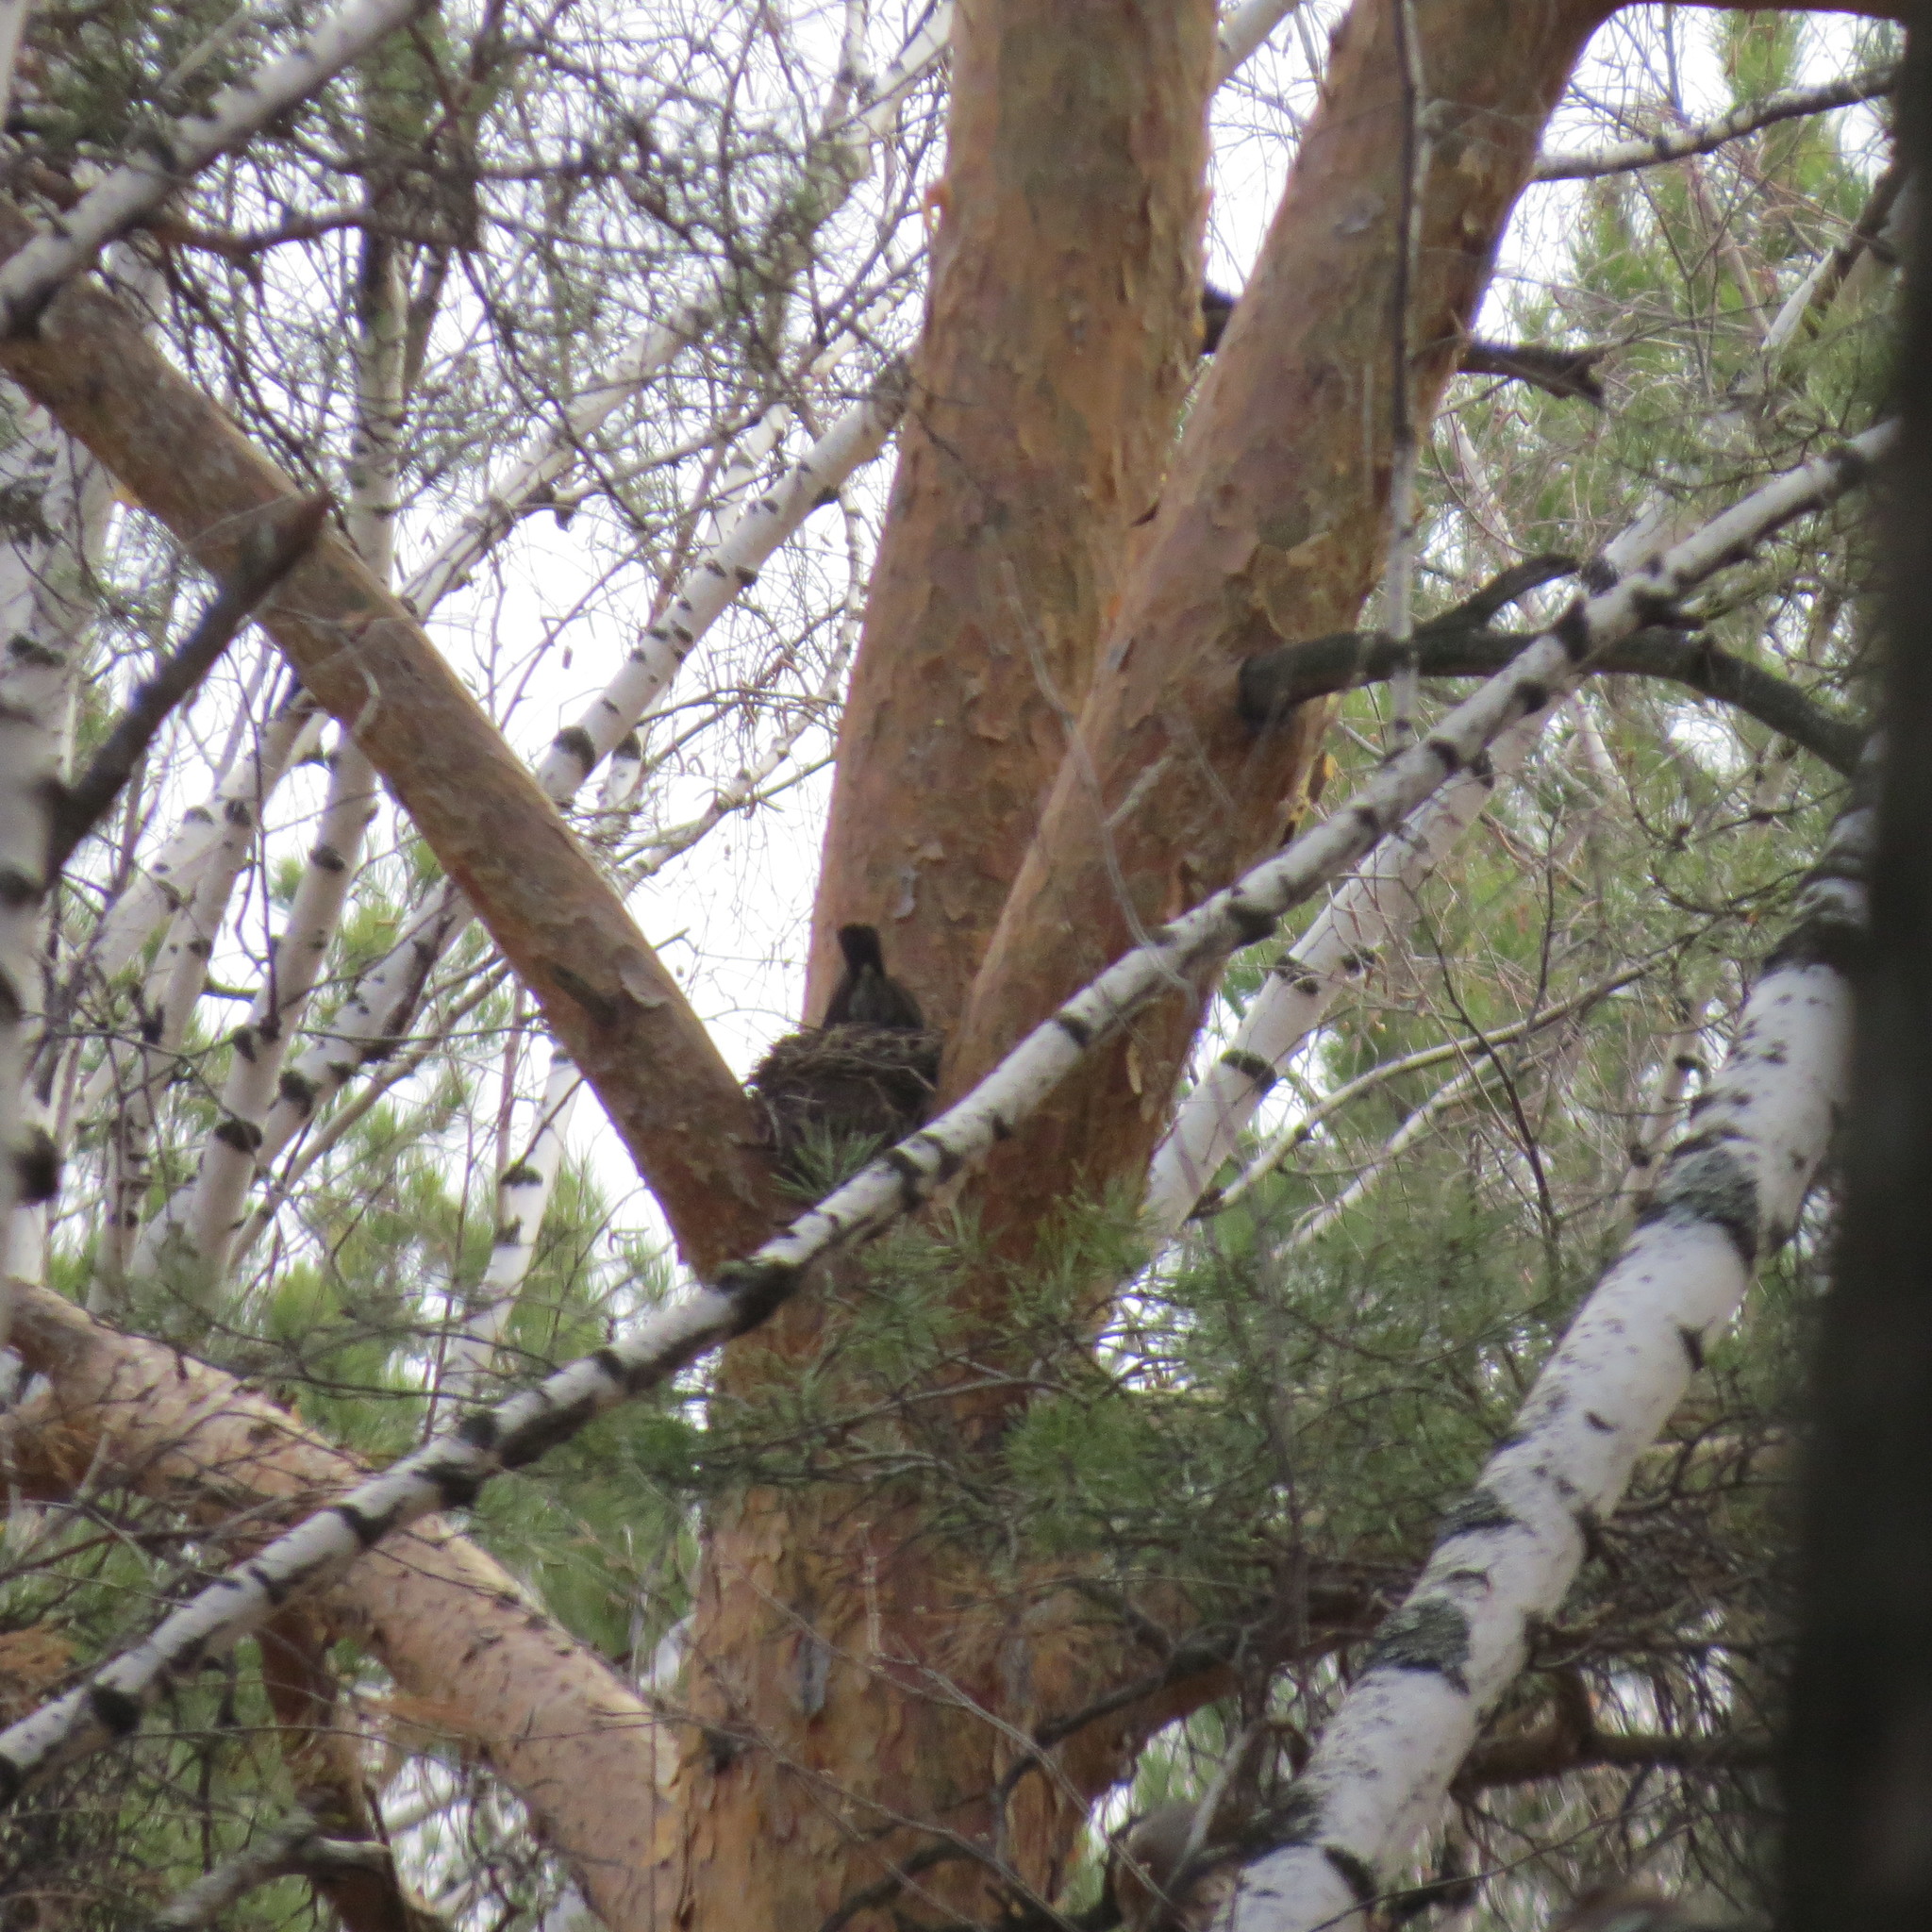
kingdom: Animalia
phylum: Chordata
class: Aves
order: Passeriformes
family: Turdidae
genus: Turdus
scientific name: Turdus pilaris
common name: Fieldfare
